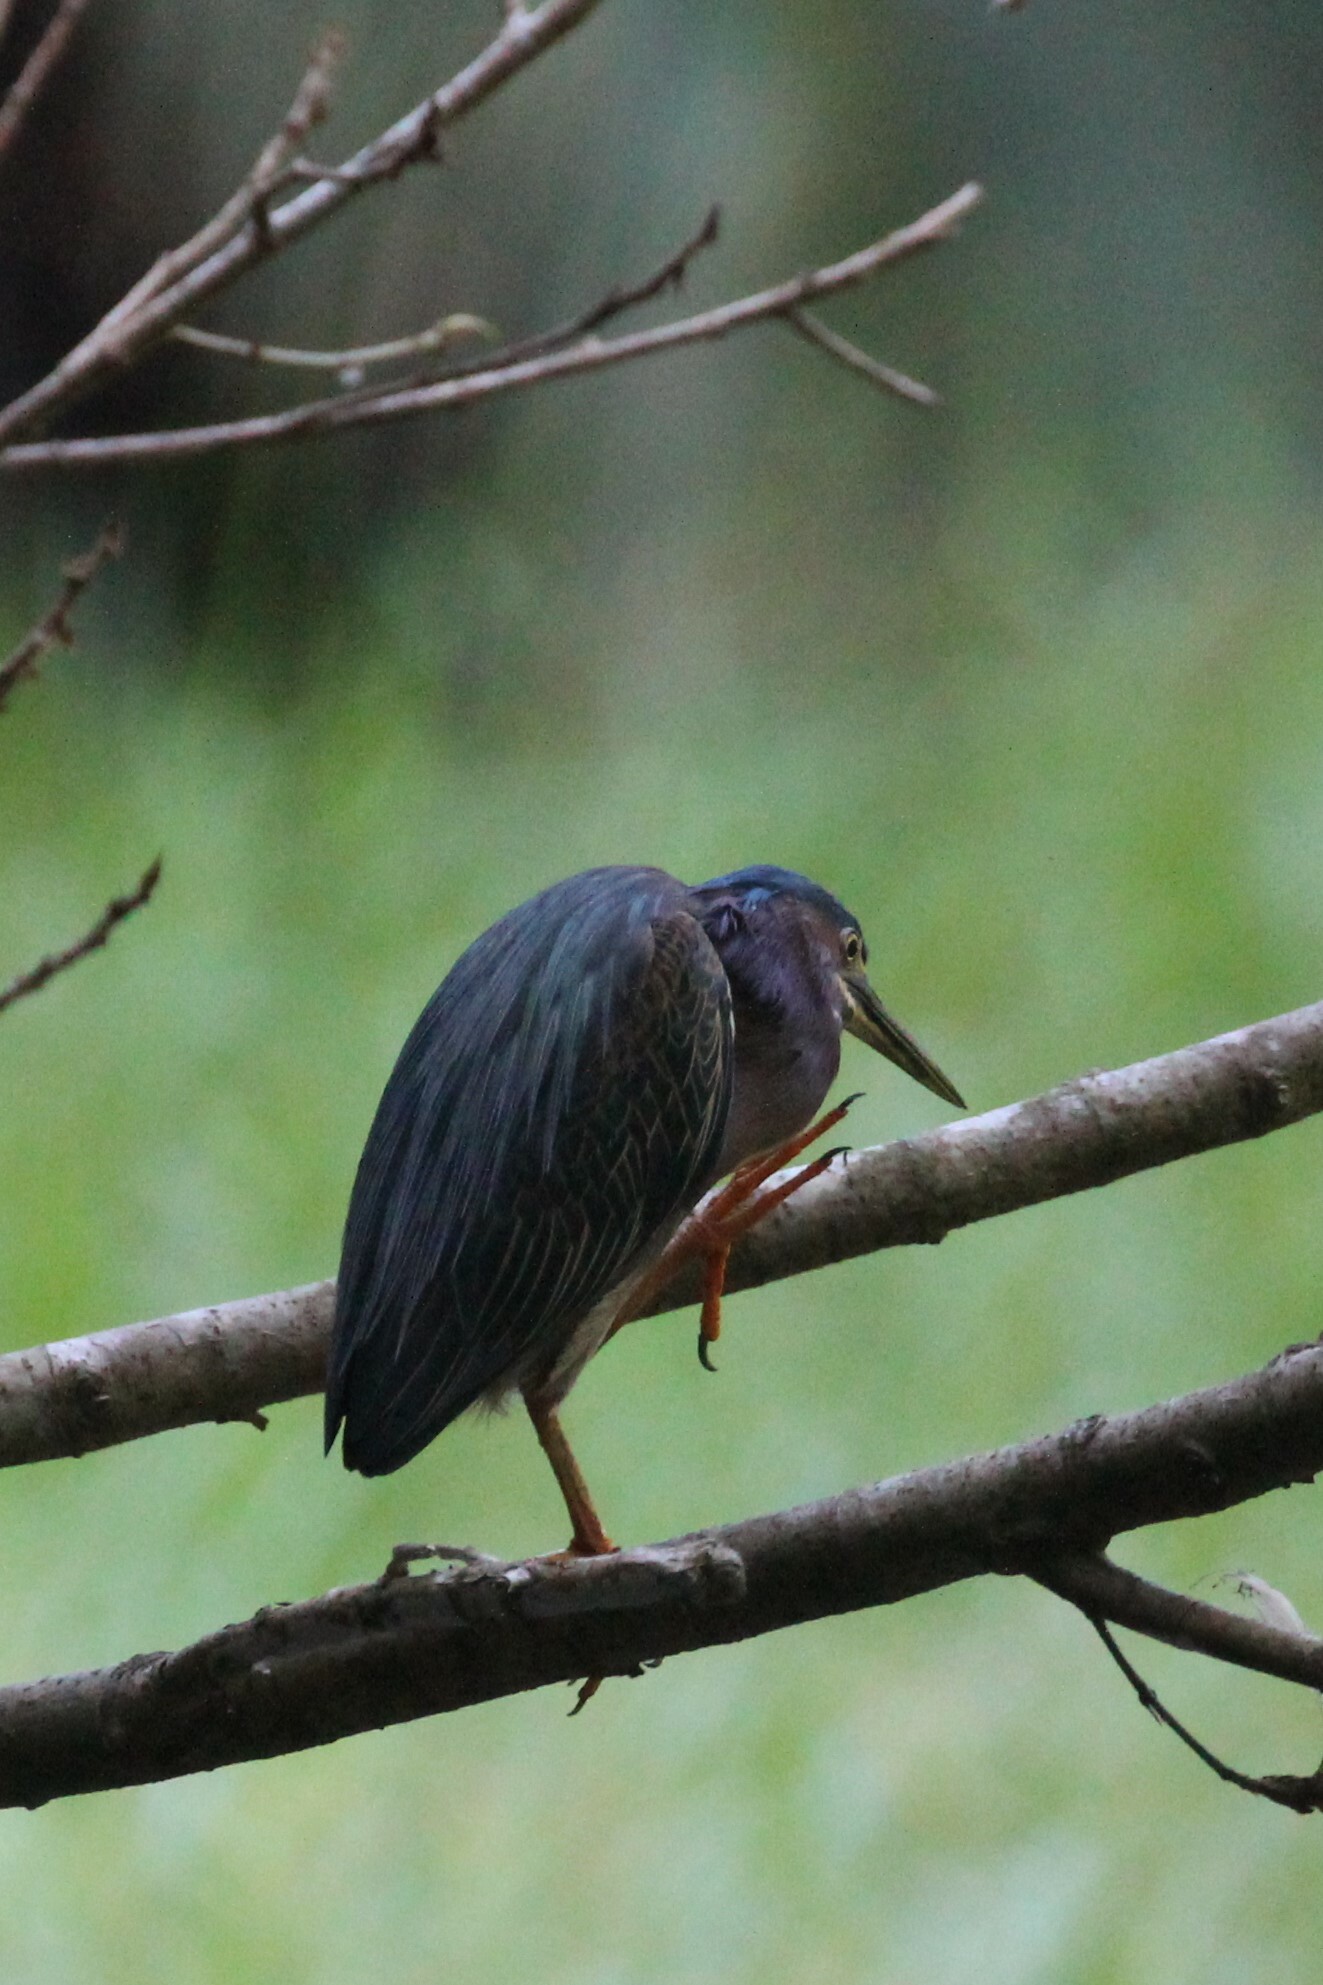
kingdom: Animalia
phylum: Chordata
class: Aves
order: Pelecaniformes
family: Ardeidae
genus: Butorides
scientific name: Butorides virescens
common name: Green heron
